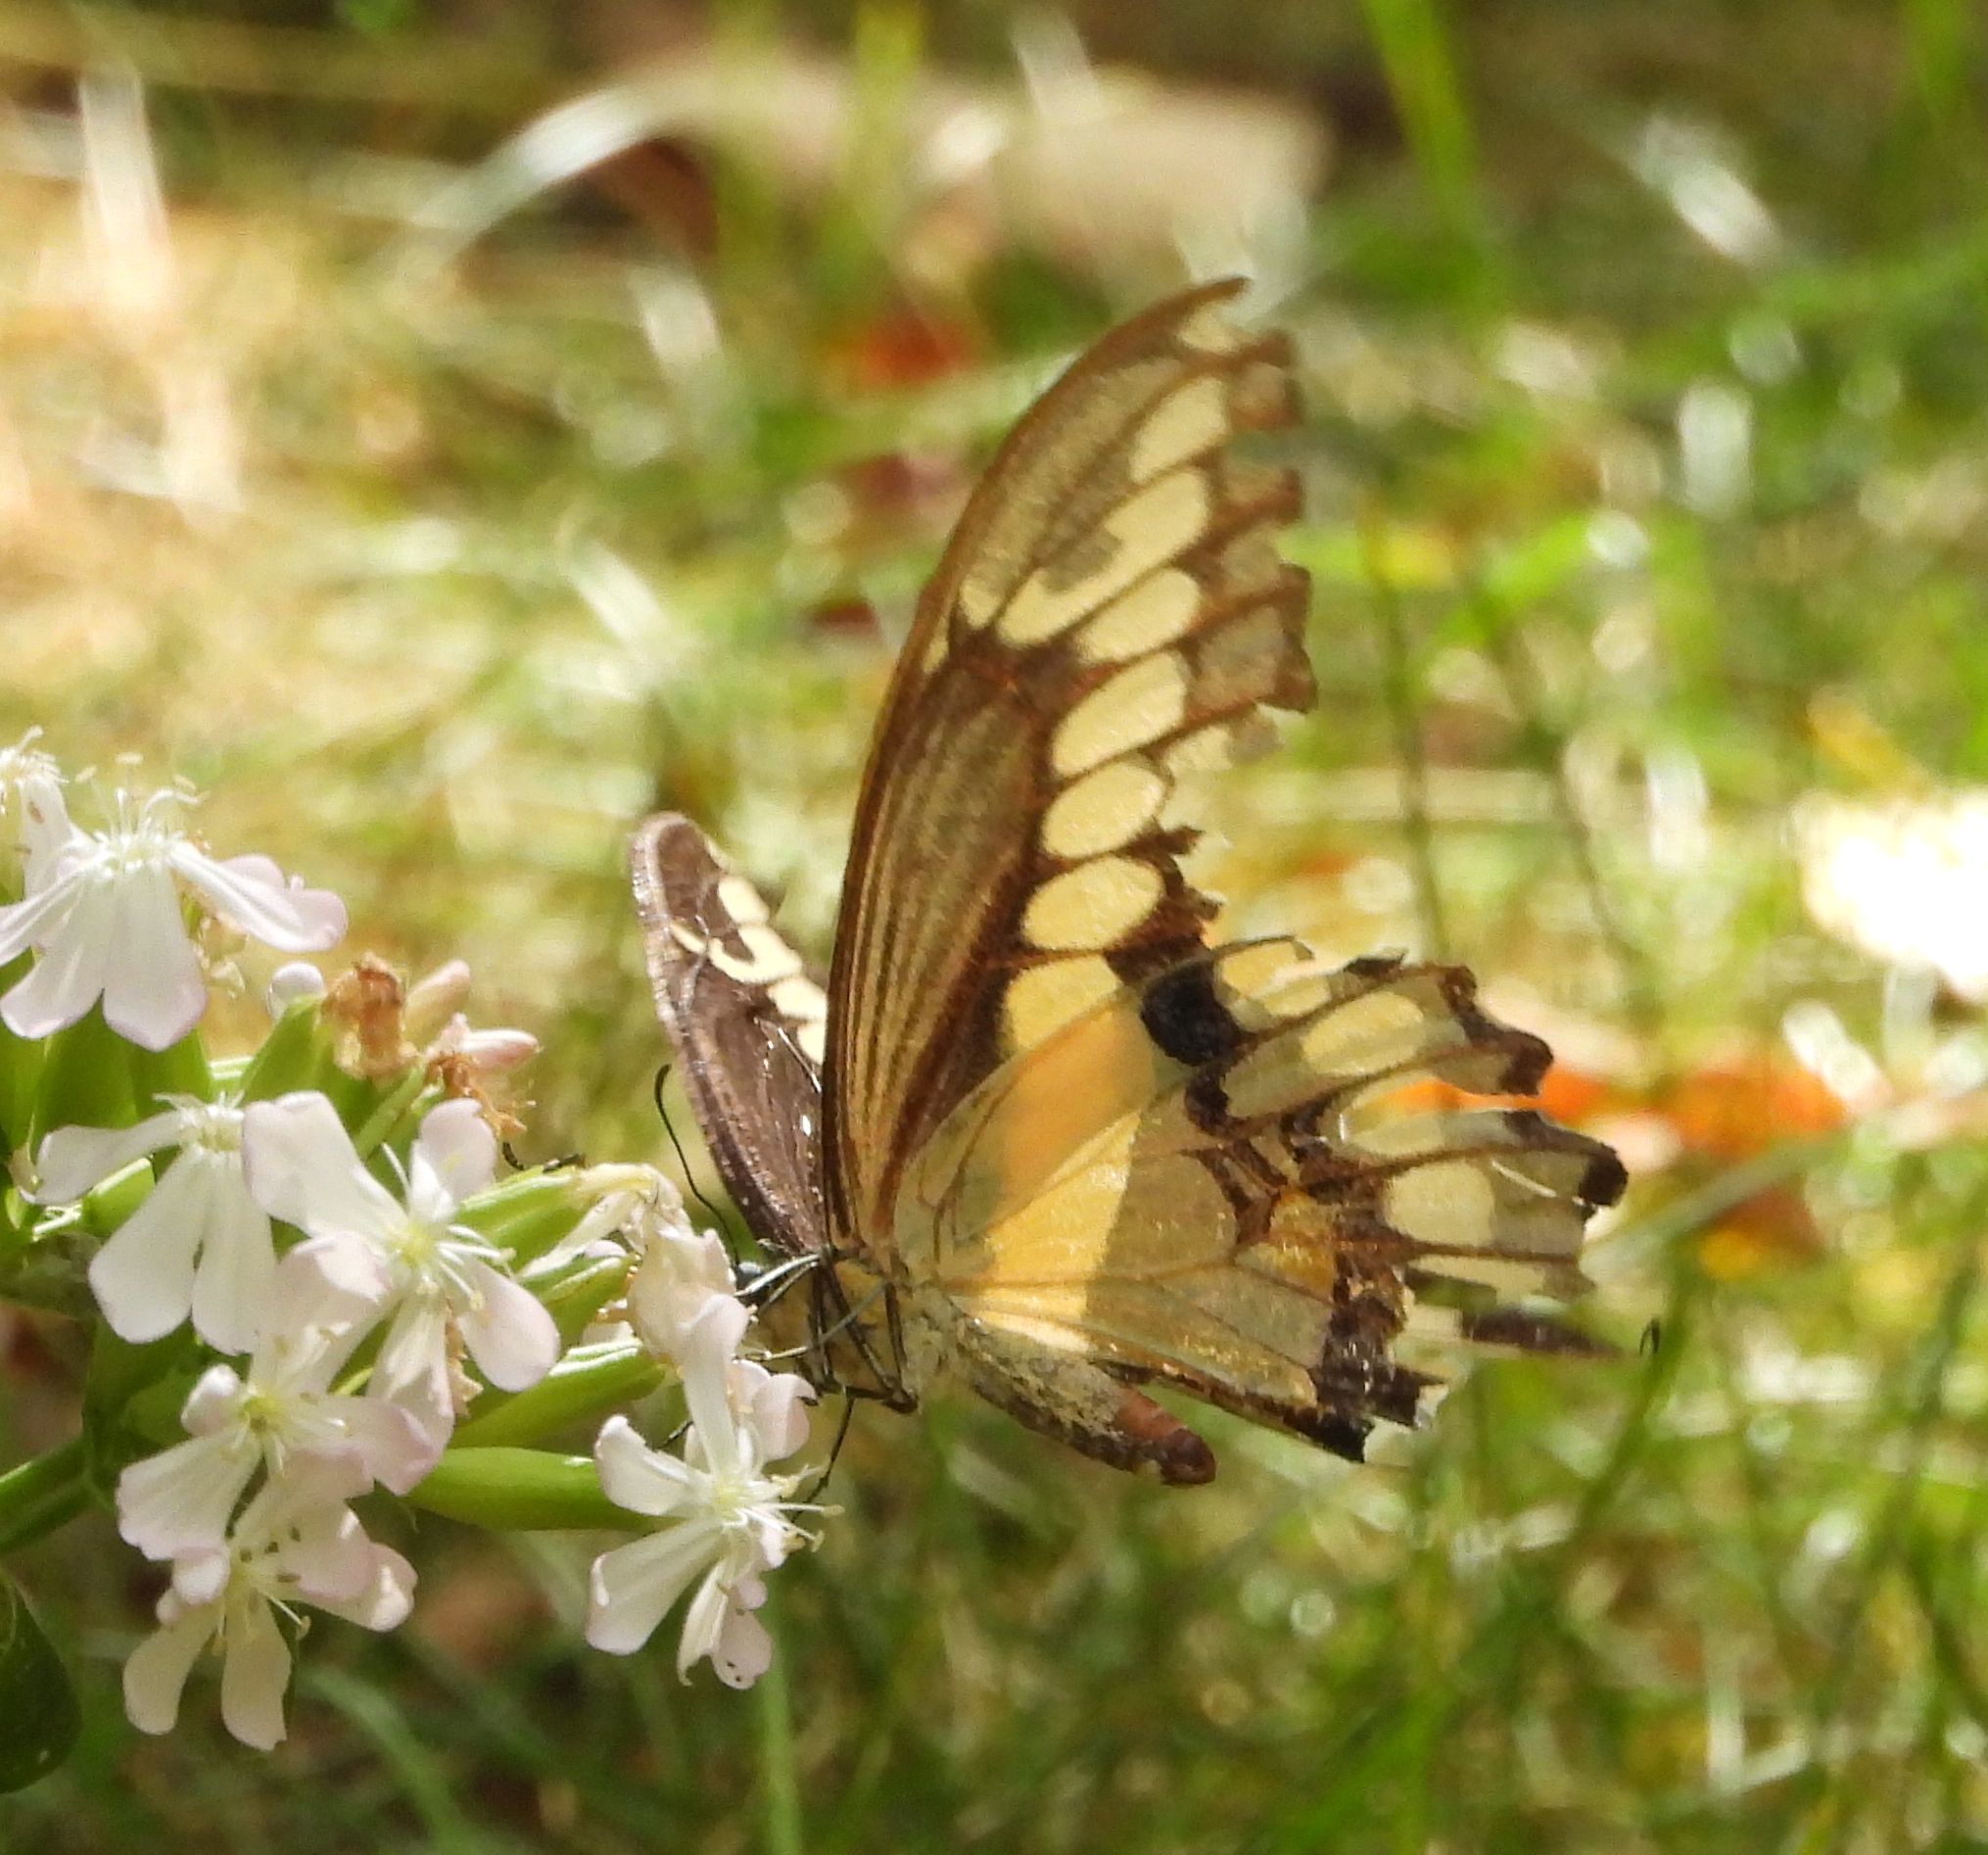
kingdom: Animalia
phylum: Arthropoda
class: Insecta
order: Lepidoptera
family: Papilionidae
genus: Papilio
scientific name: Papilio cresphontes
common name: Giant swallowtail
